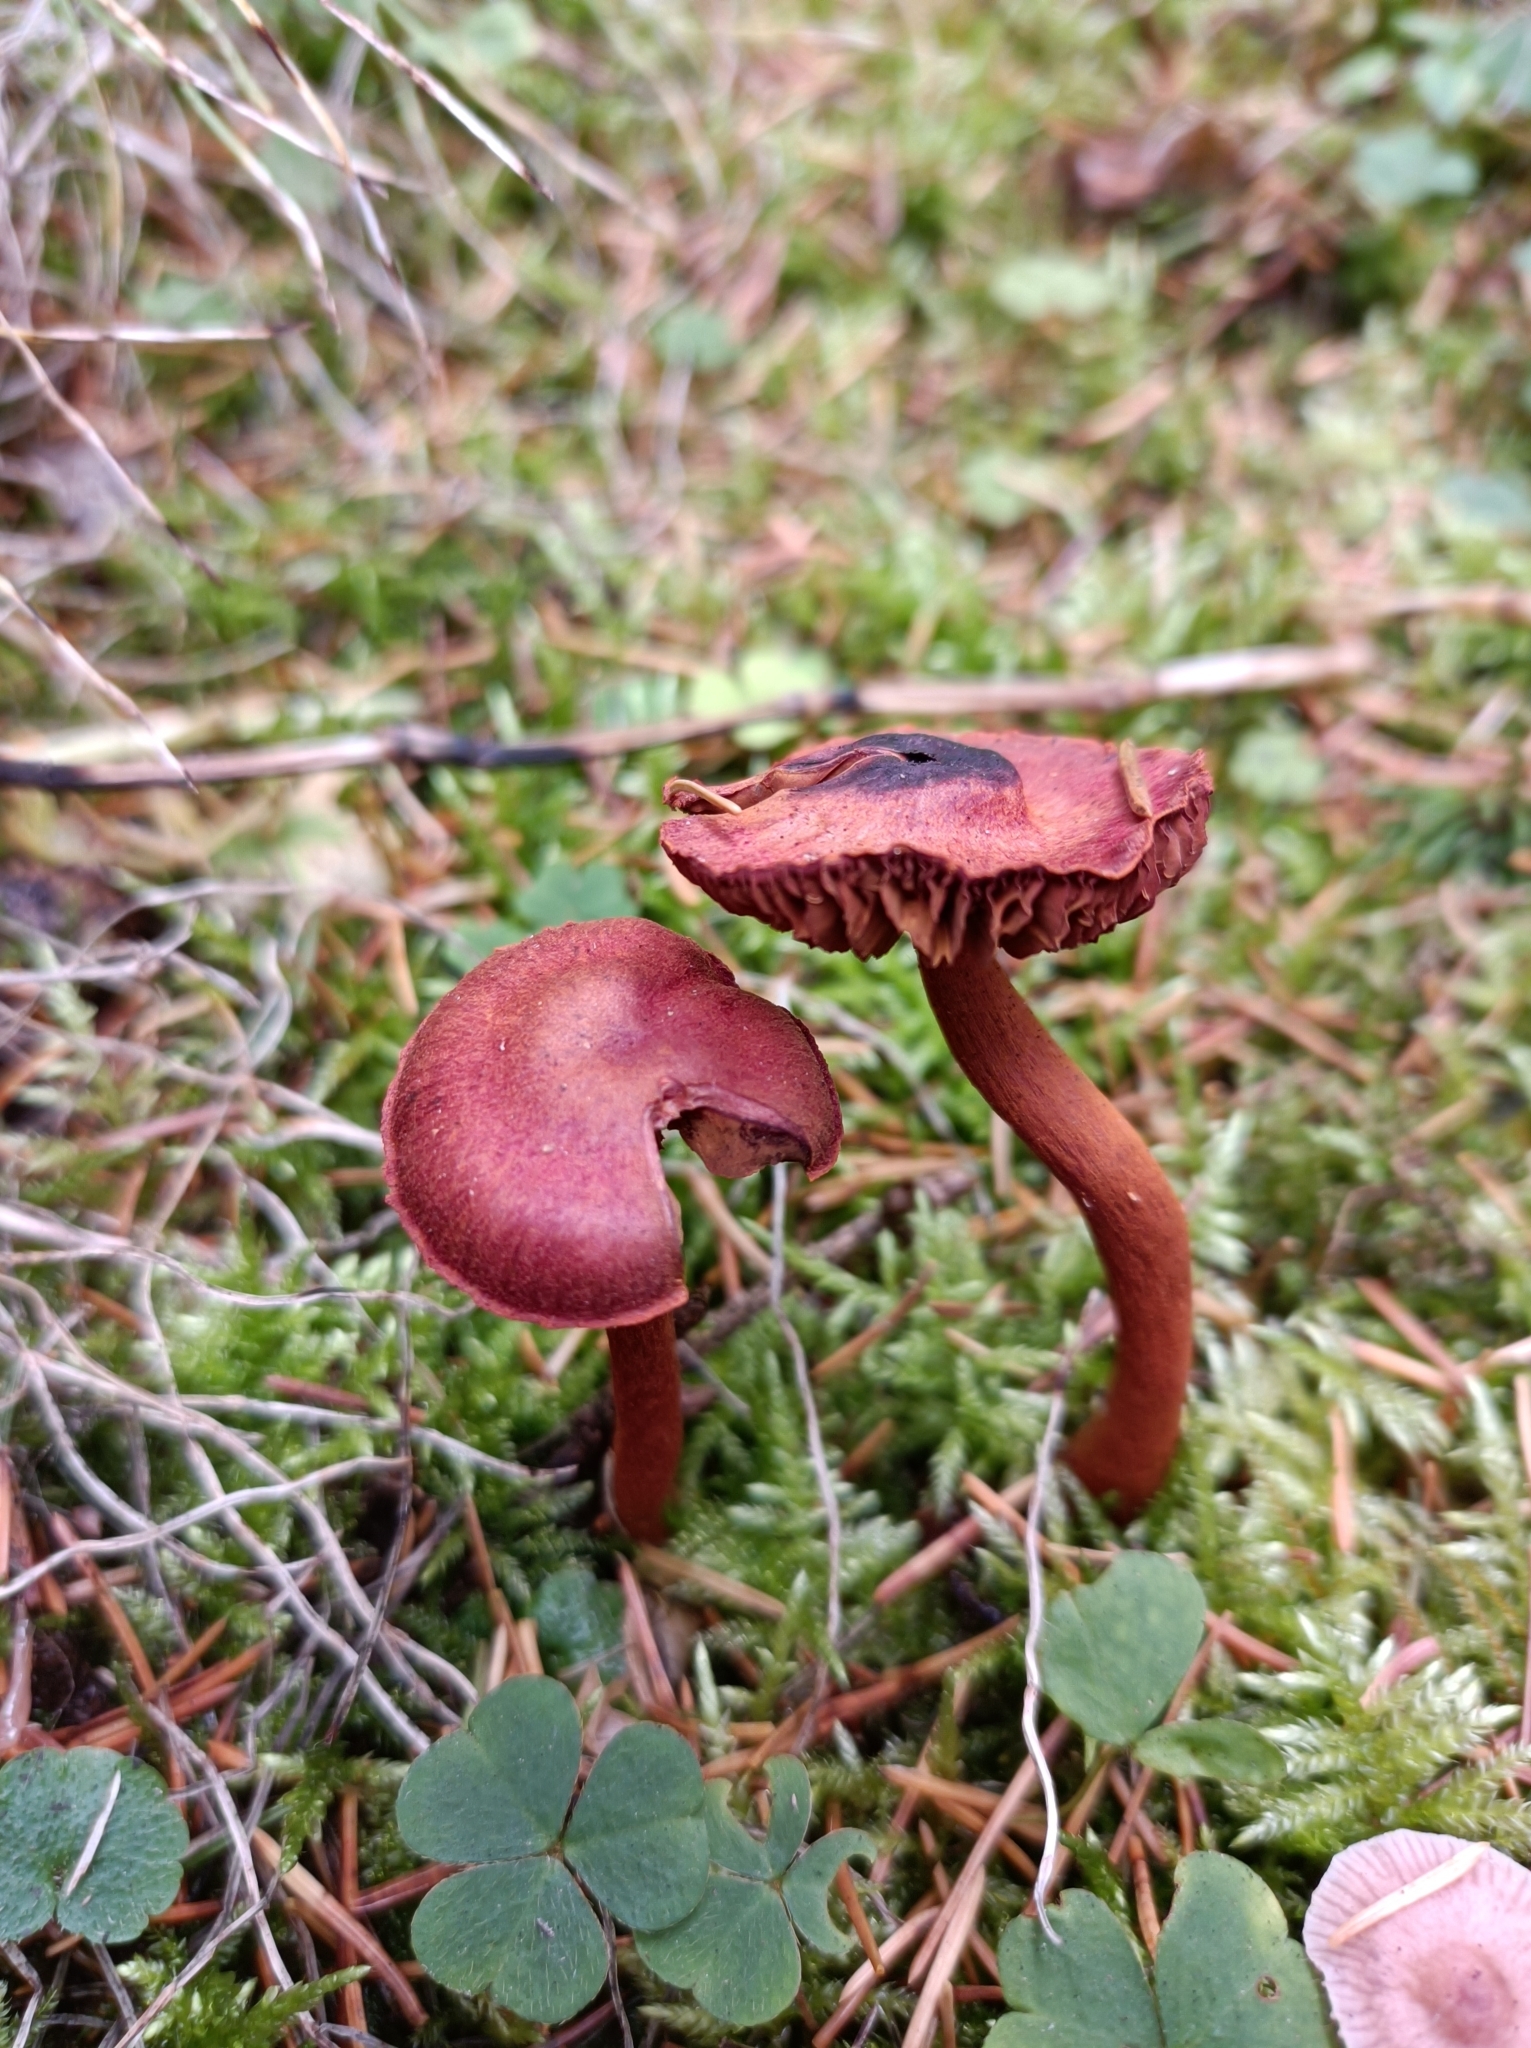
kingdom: Fungi
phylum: Basidiomycota
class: Agaricomycetes
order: Agaricales
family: Cortinariaceae
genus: Cortinarius
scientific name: Cortinarius sanguineus
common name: Bloodred webcap
